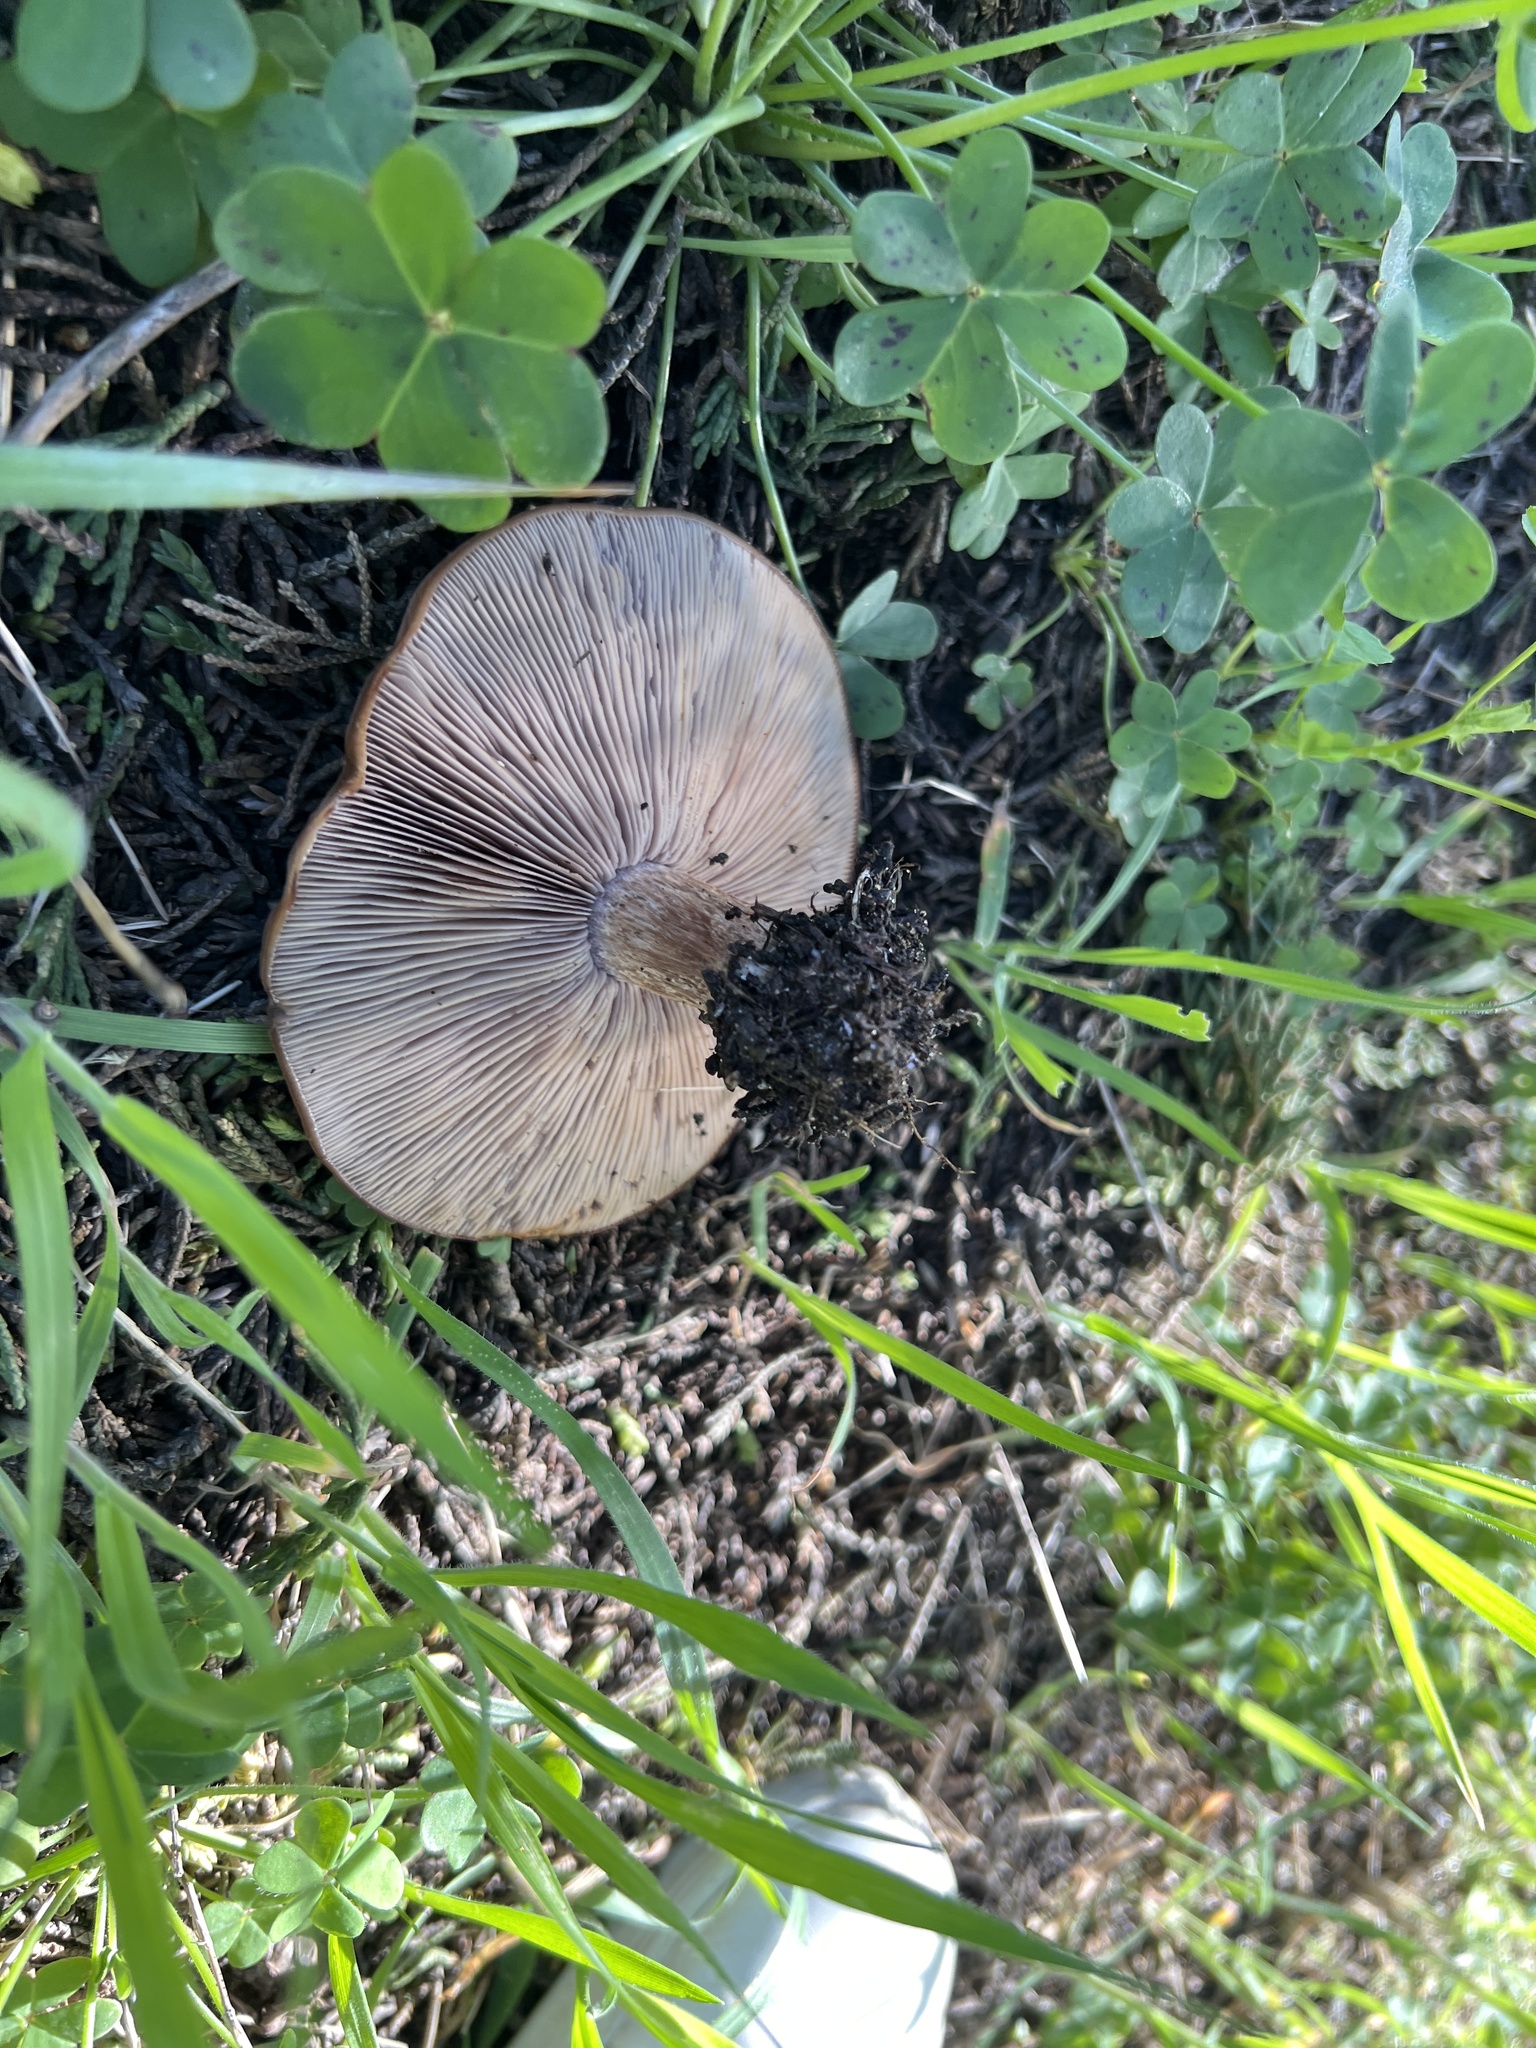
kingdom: Fungi
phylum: Basidiomycota
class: Agaricomycetes
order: Agaricales
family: Tricholomataceae
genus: Collybia
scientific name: Collybia
